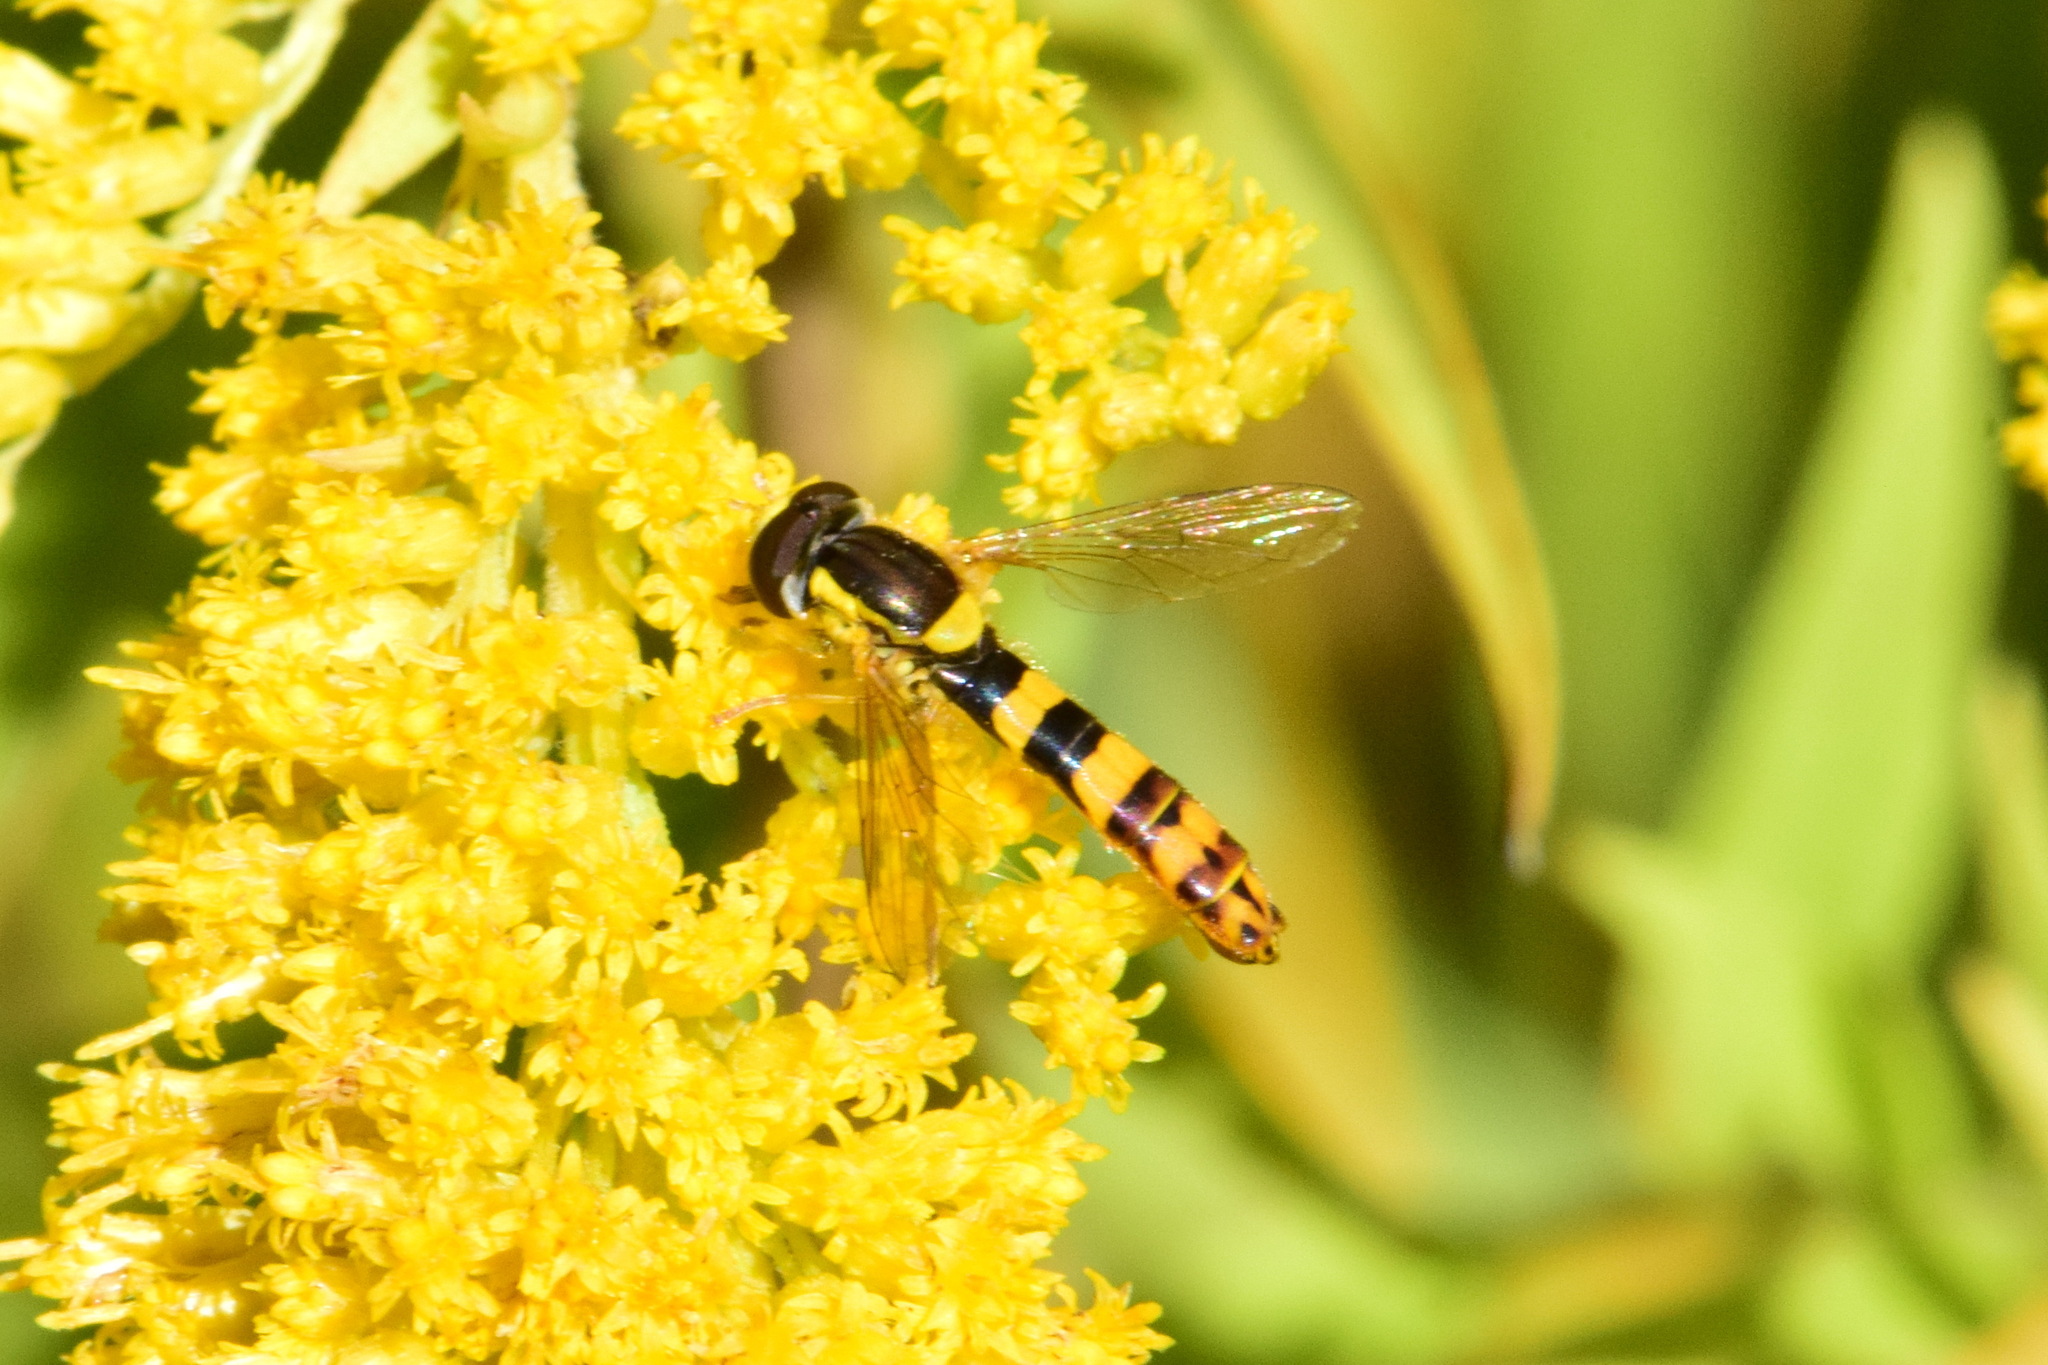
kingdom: Animalia
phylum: Arthropoda
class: Insecta
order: Diptera
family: Syrphidae
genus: Sphaerophoria
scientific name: Sphaerophoria scripta
